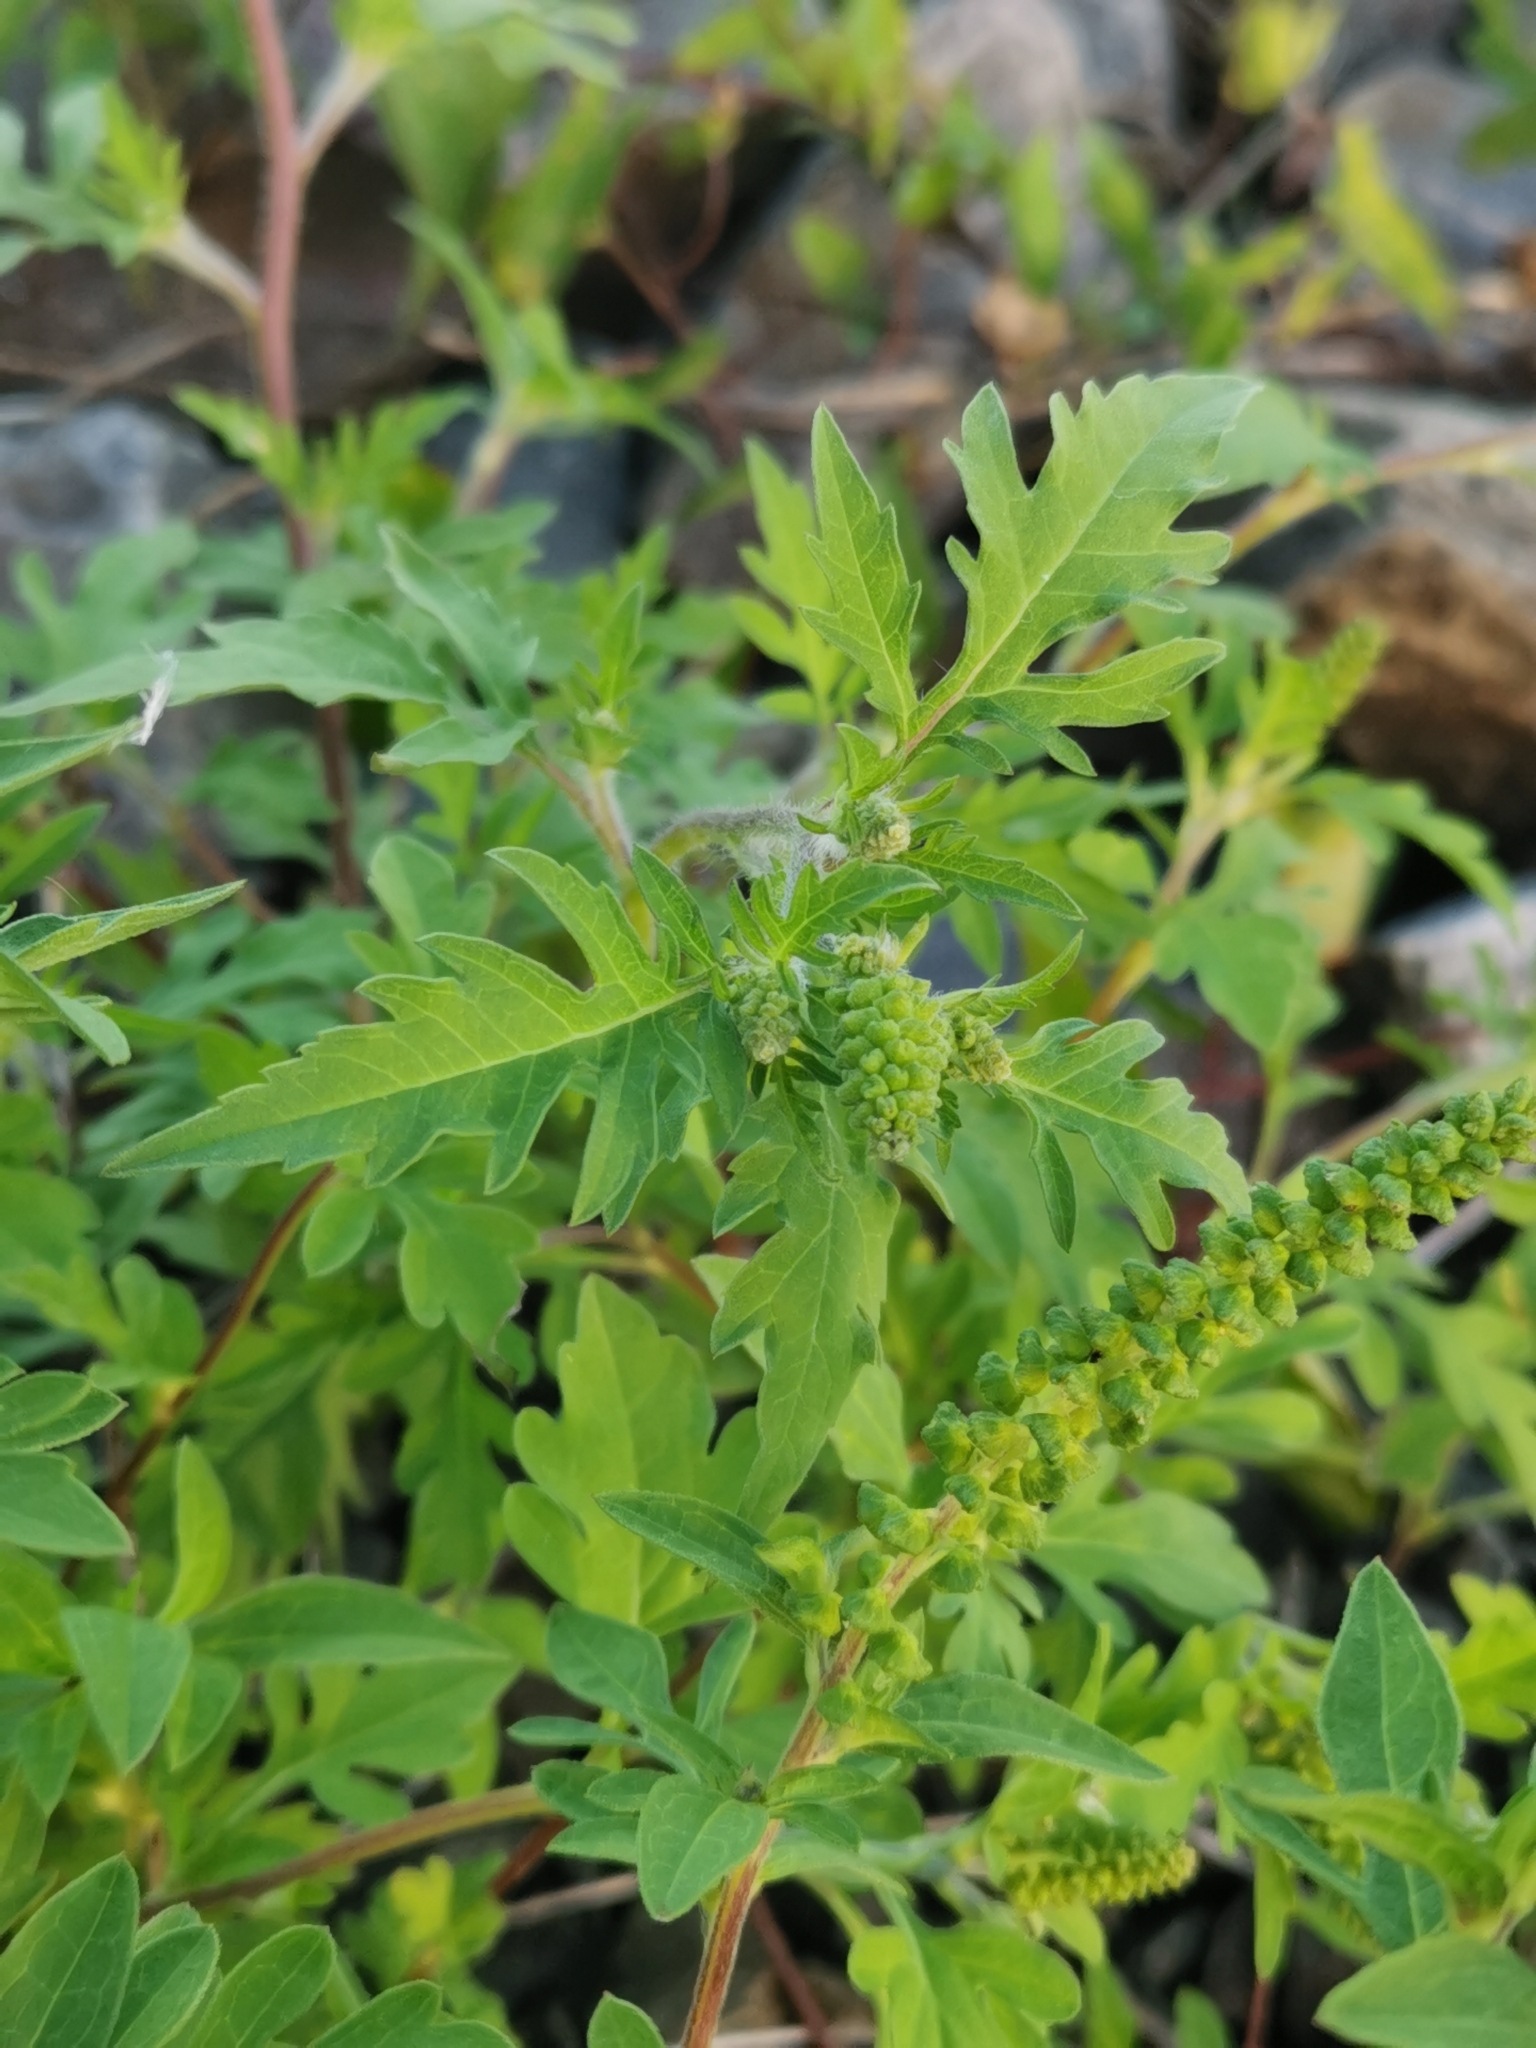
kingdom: Plantae
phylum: Tracheophyta
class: Magnoliopsida
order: Asterales
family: Asteraceae
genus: Ambrosia
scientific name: Ambrosia artemisiifolia
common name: Annual ragweed
